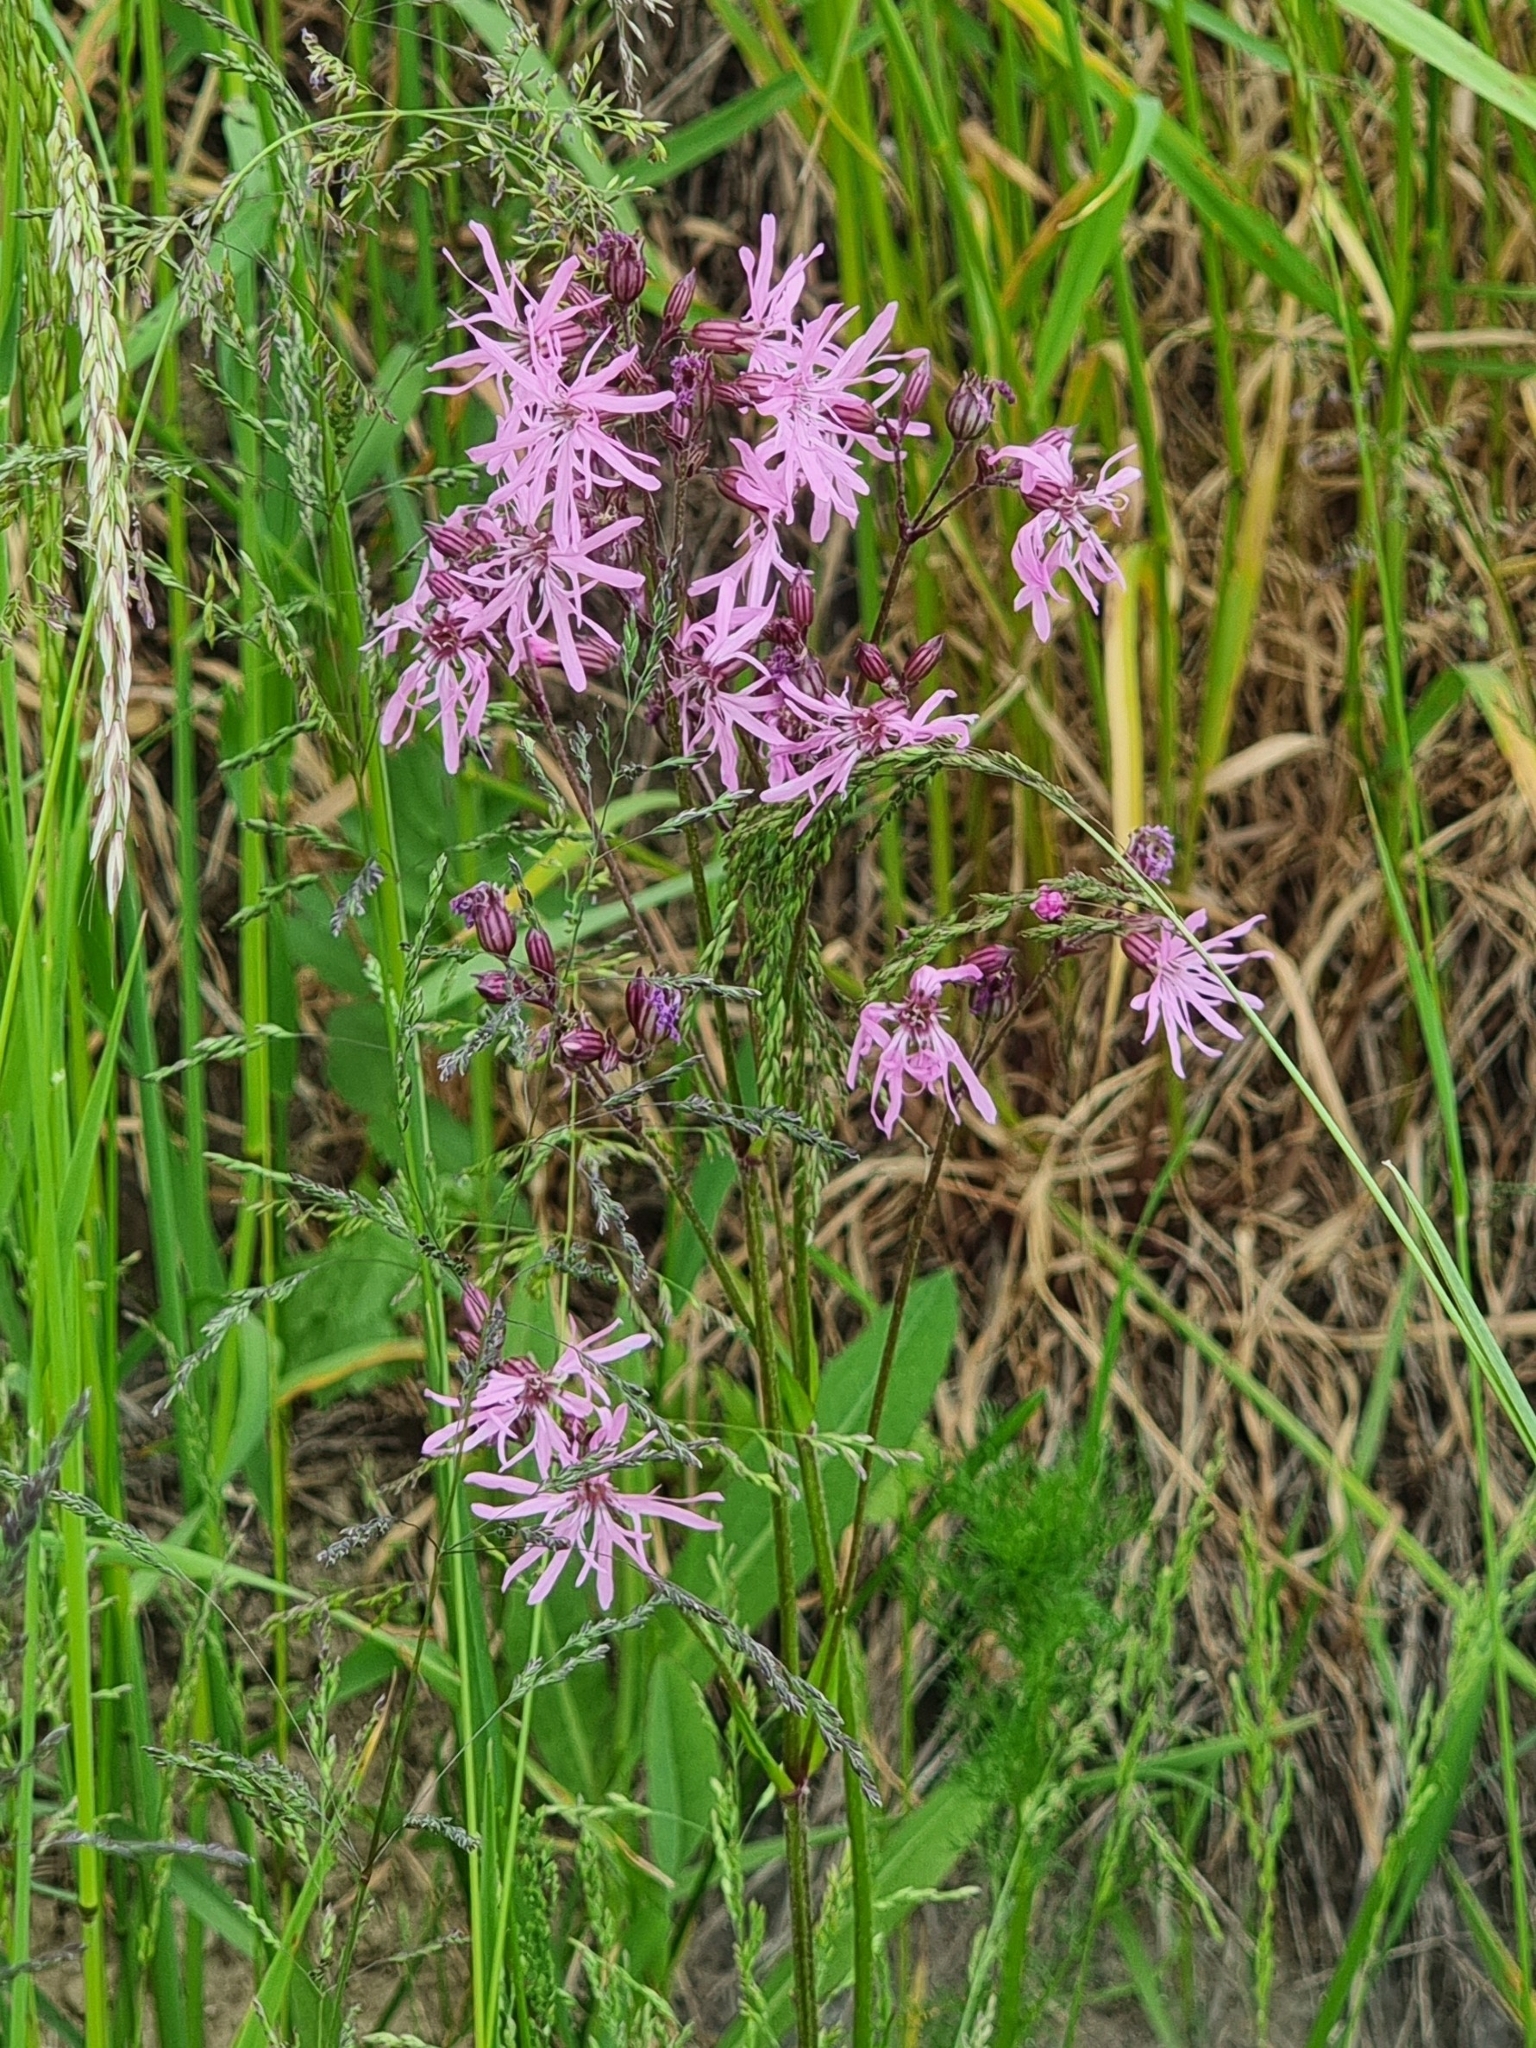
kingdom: Plantae
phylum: Tracheophyta
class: Magnoliopsida
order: Caryophyllales
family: Caryophyllaceae
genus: Silene
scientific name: Silene flos-cuculi
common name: Ragged-robin
